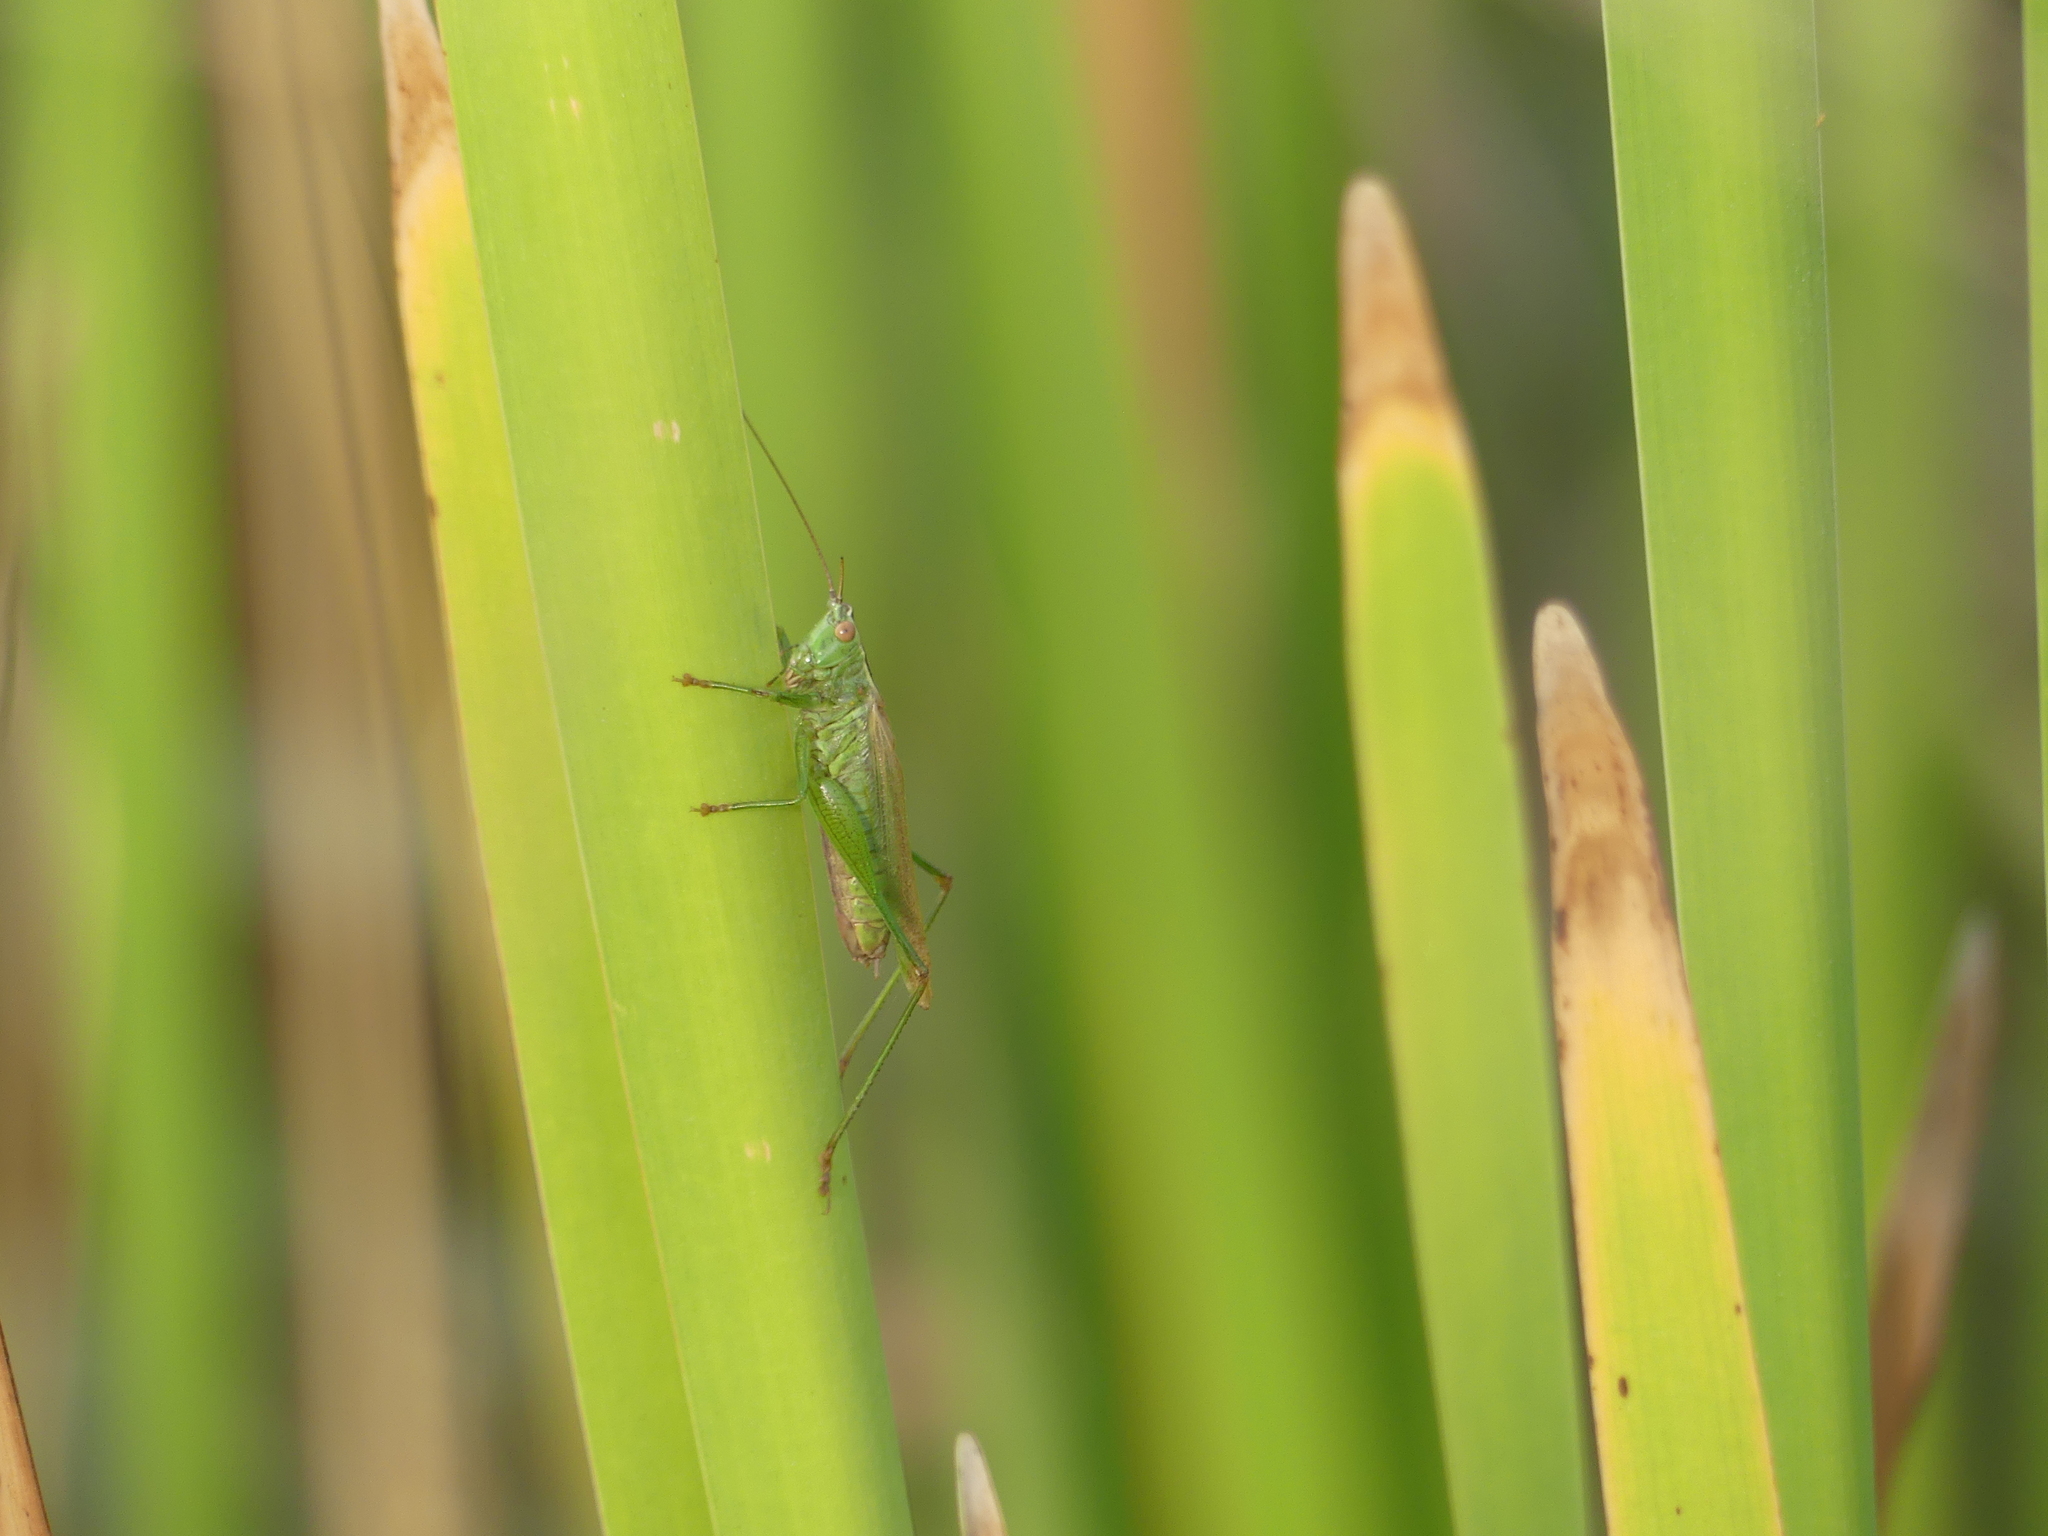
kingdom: Animalia
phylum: Arthropoda
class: Insecta
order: Orthoptera
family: Tettigoniidae
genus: Conocephalus
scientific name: Conocephalus fuscus
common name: Long-winged conehead
